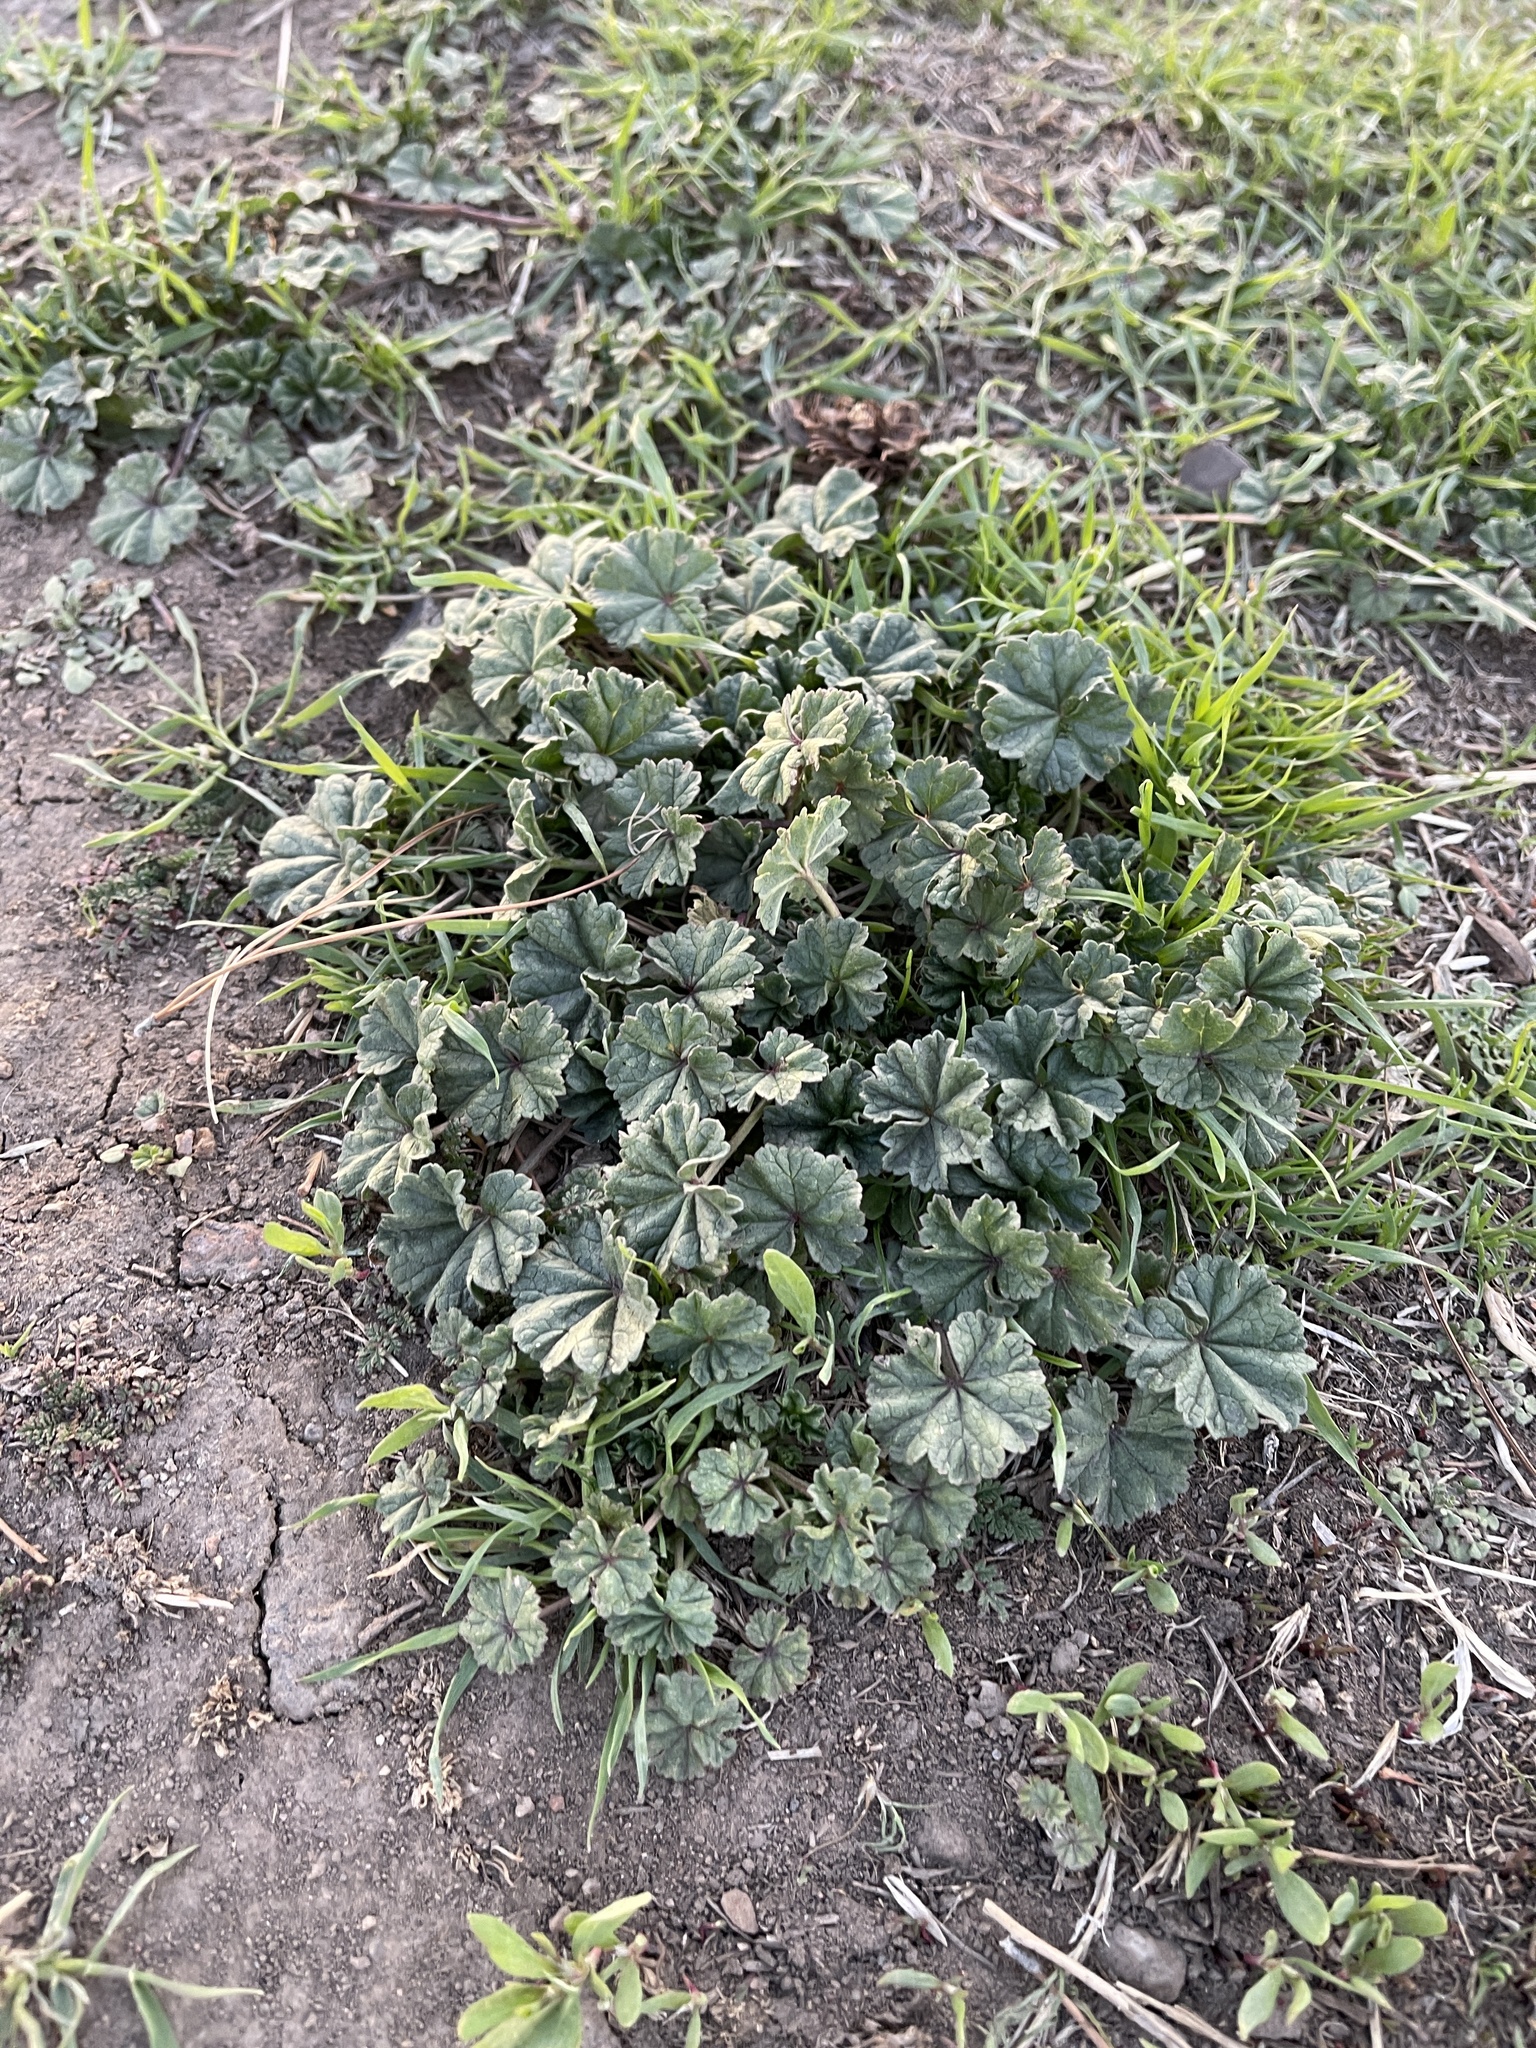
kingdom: Plantae
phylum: Tracheophyta
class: Magnoliopsida
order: Malvales
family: Malvaceae
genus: Malva
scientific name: Malva parviflora
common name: Least mallow
